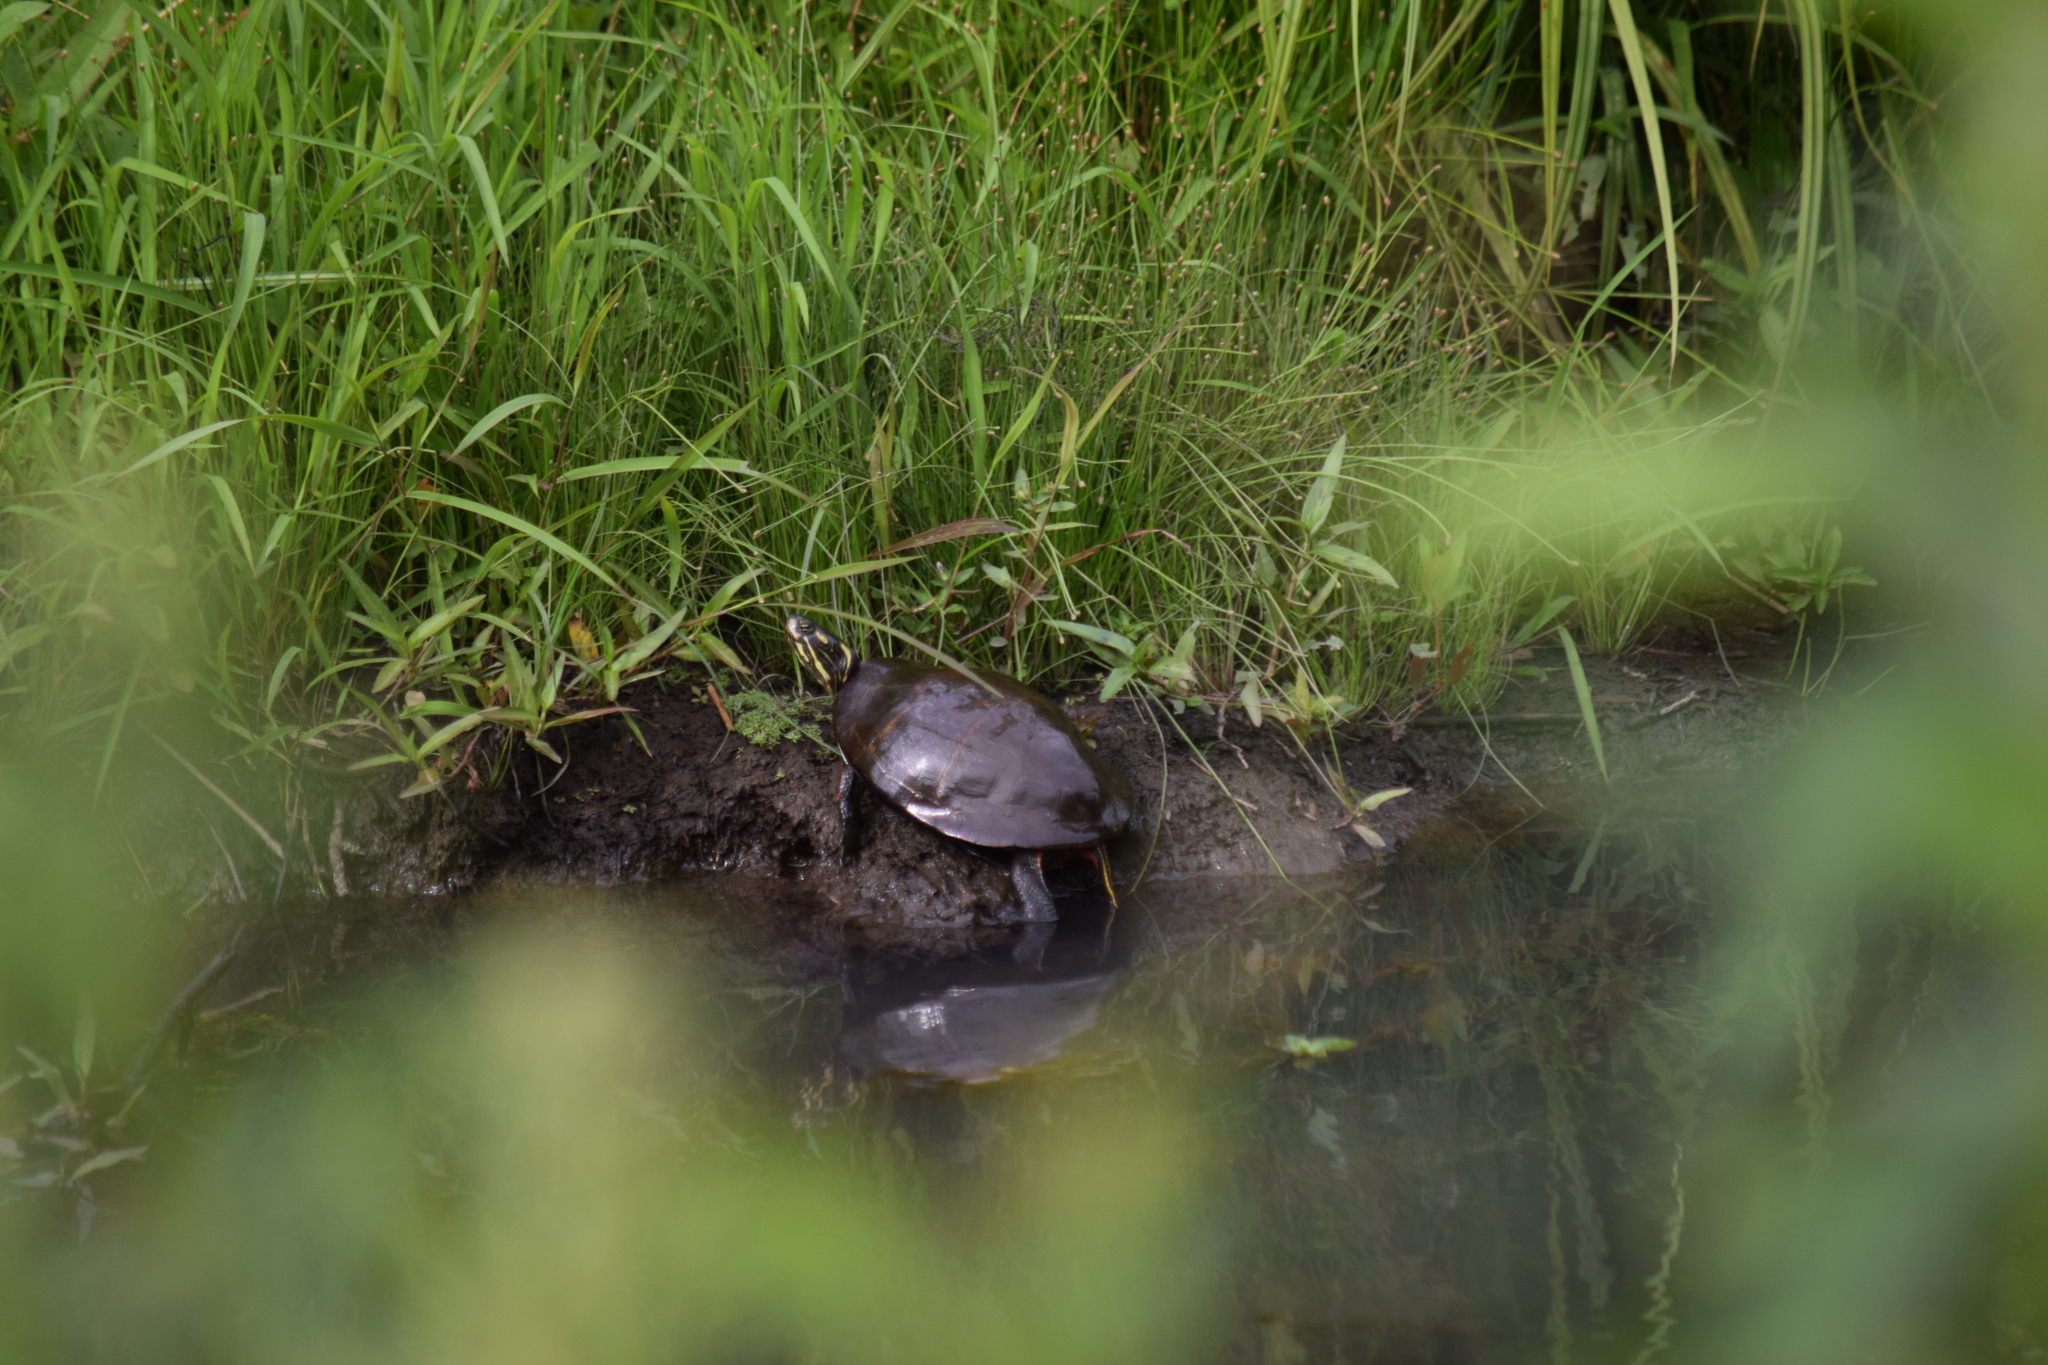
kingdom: Animalia
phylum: Chordata
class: Testudines
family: Emydidae
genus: Chrysemys
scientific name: Chrysemys picta
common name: Painted turtle
